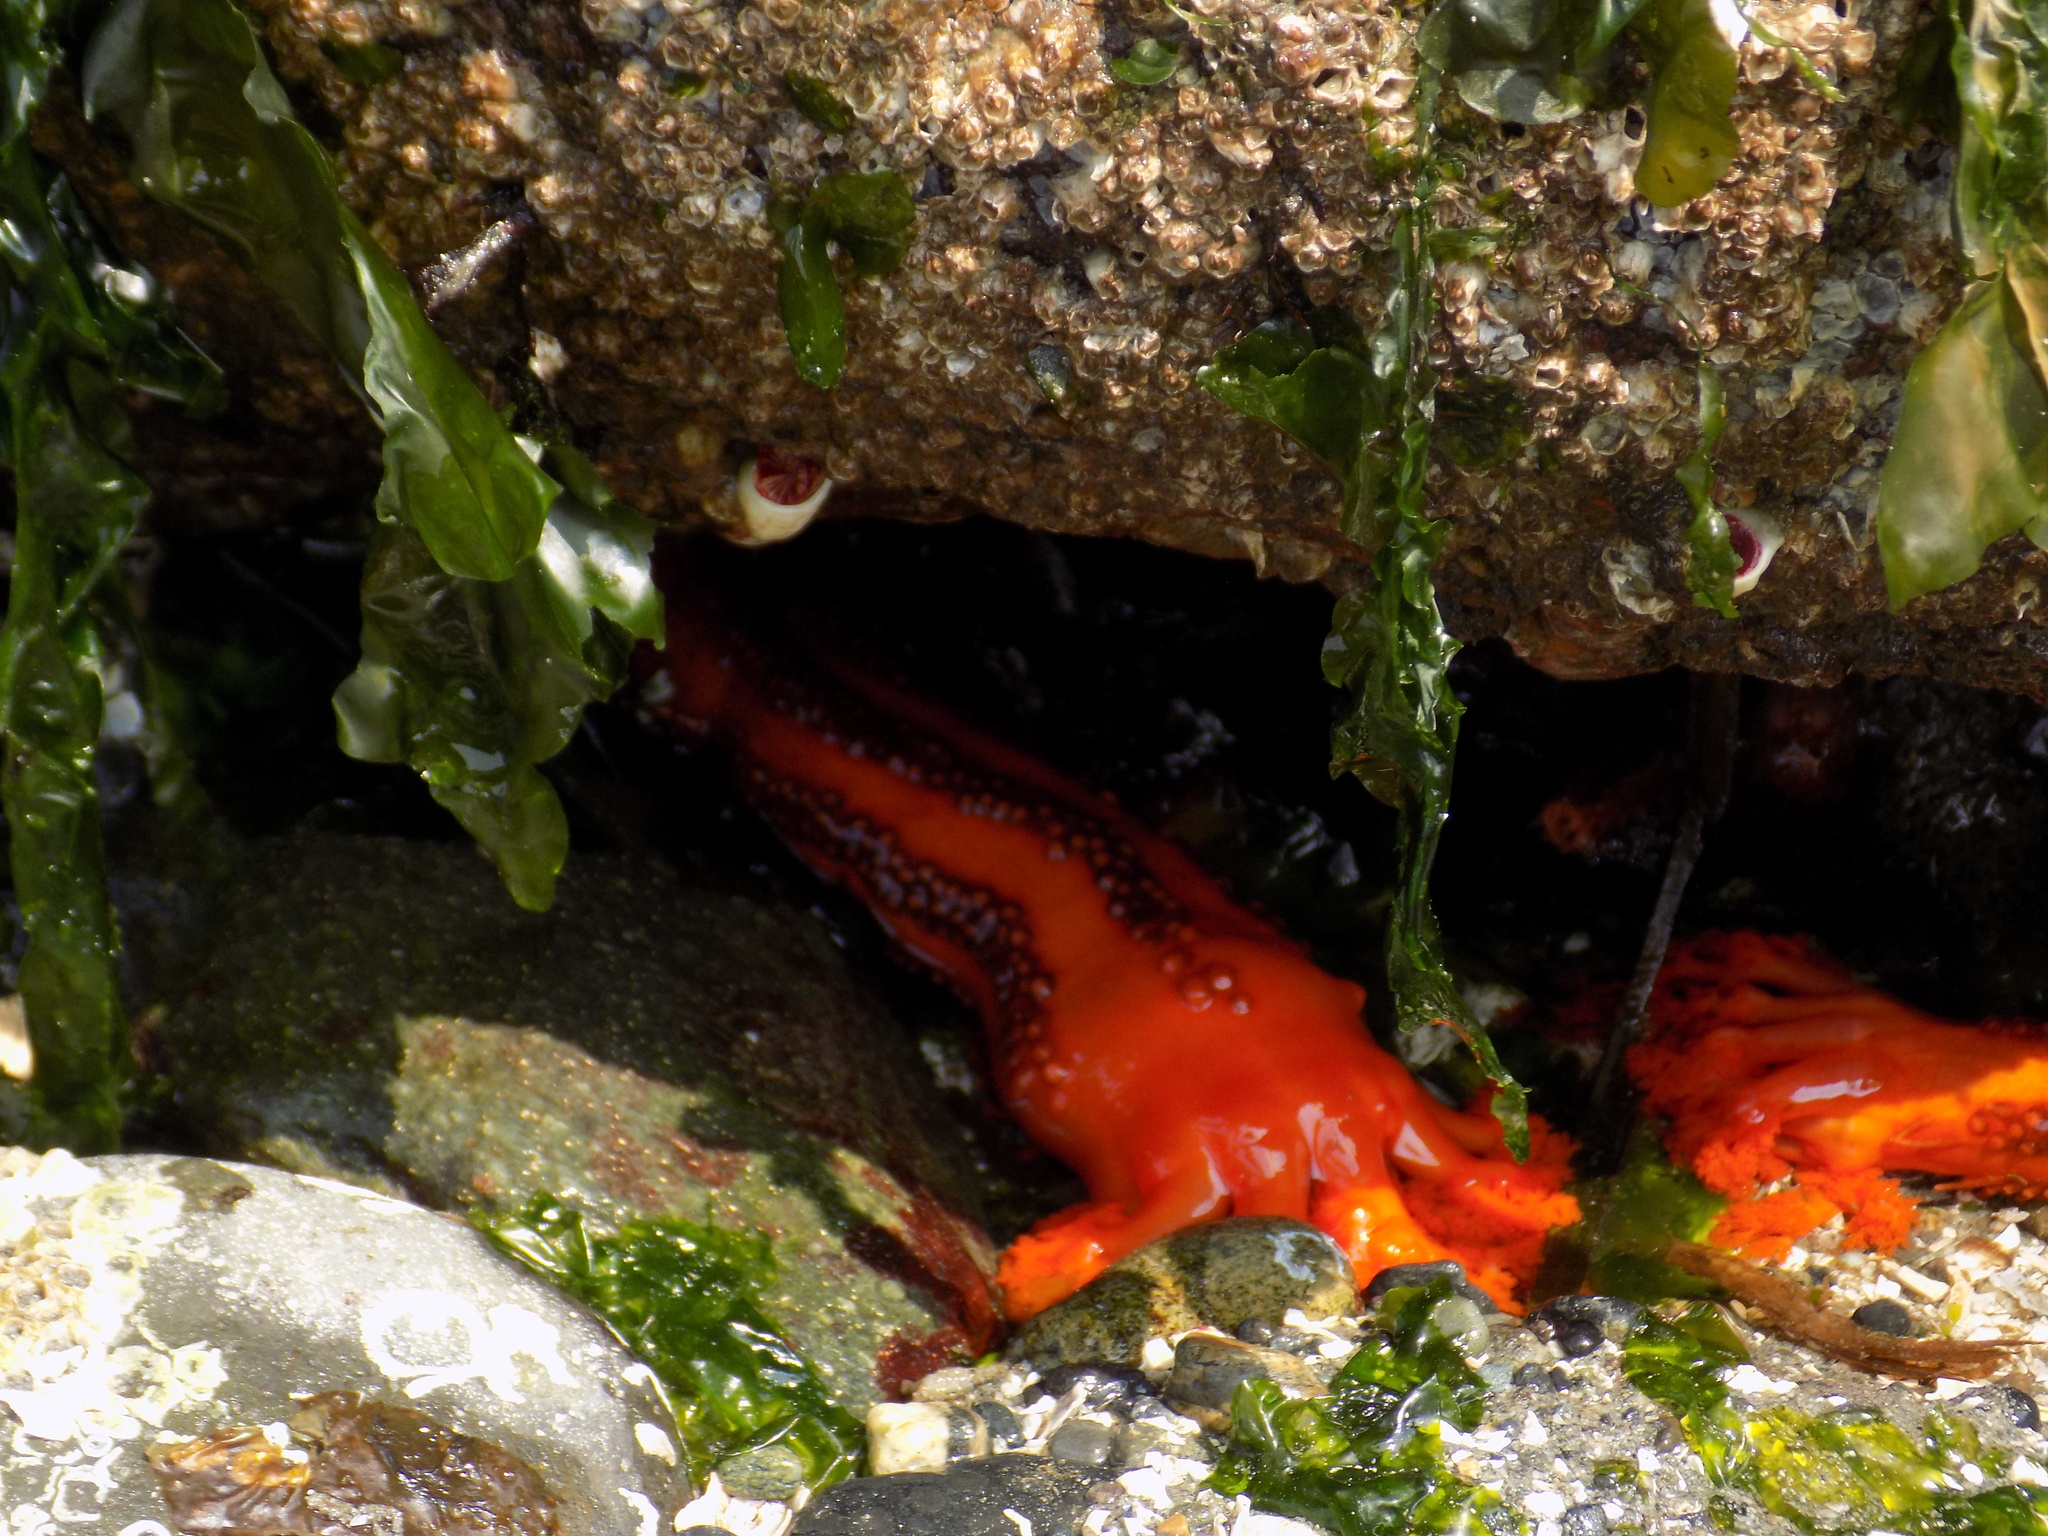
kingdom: Animalia
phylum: Echinodermata
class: Holothuroidea
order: Dendrochirotida
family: Cucumariidae
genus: Cucumaria
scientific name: Cucumaria miniata
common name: Orange sea cucumber
